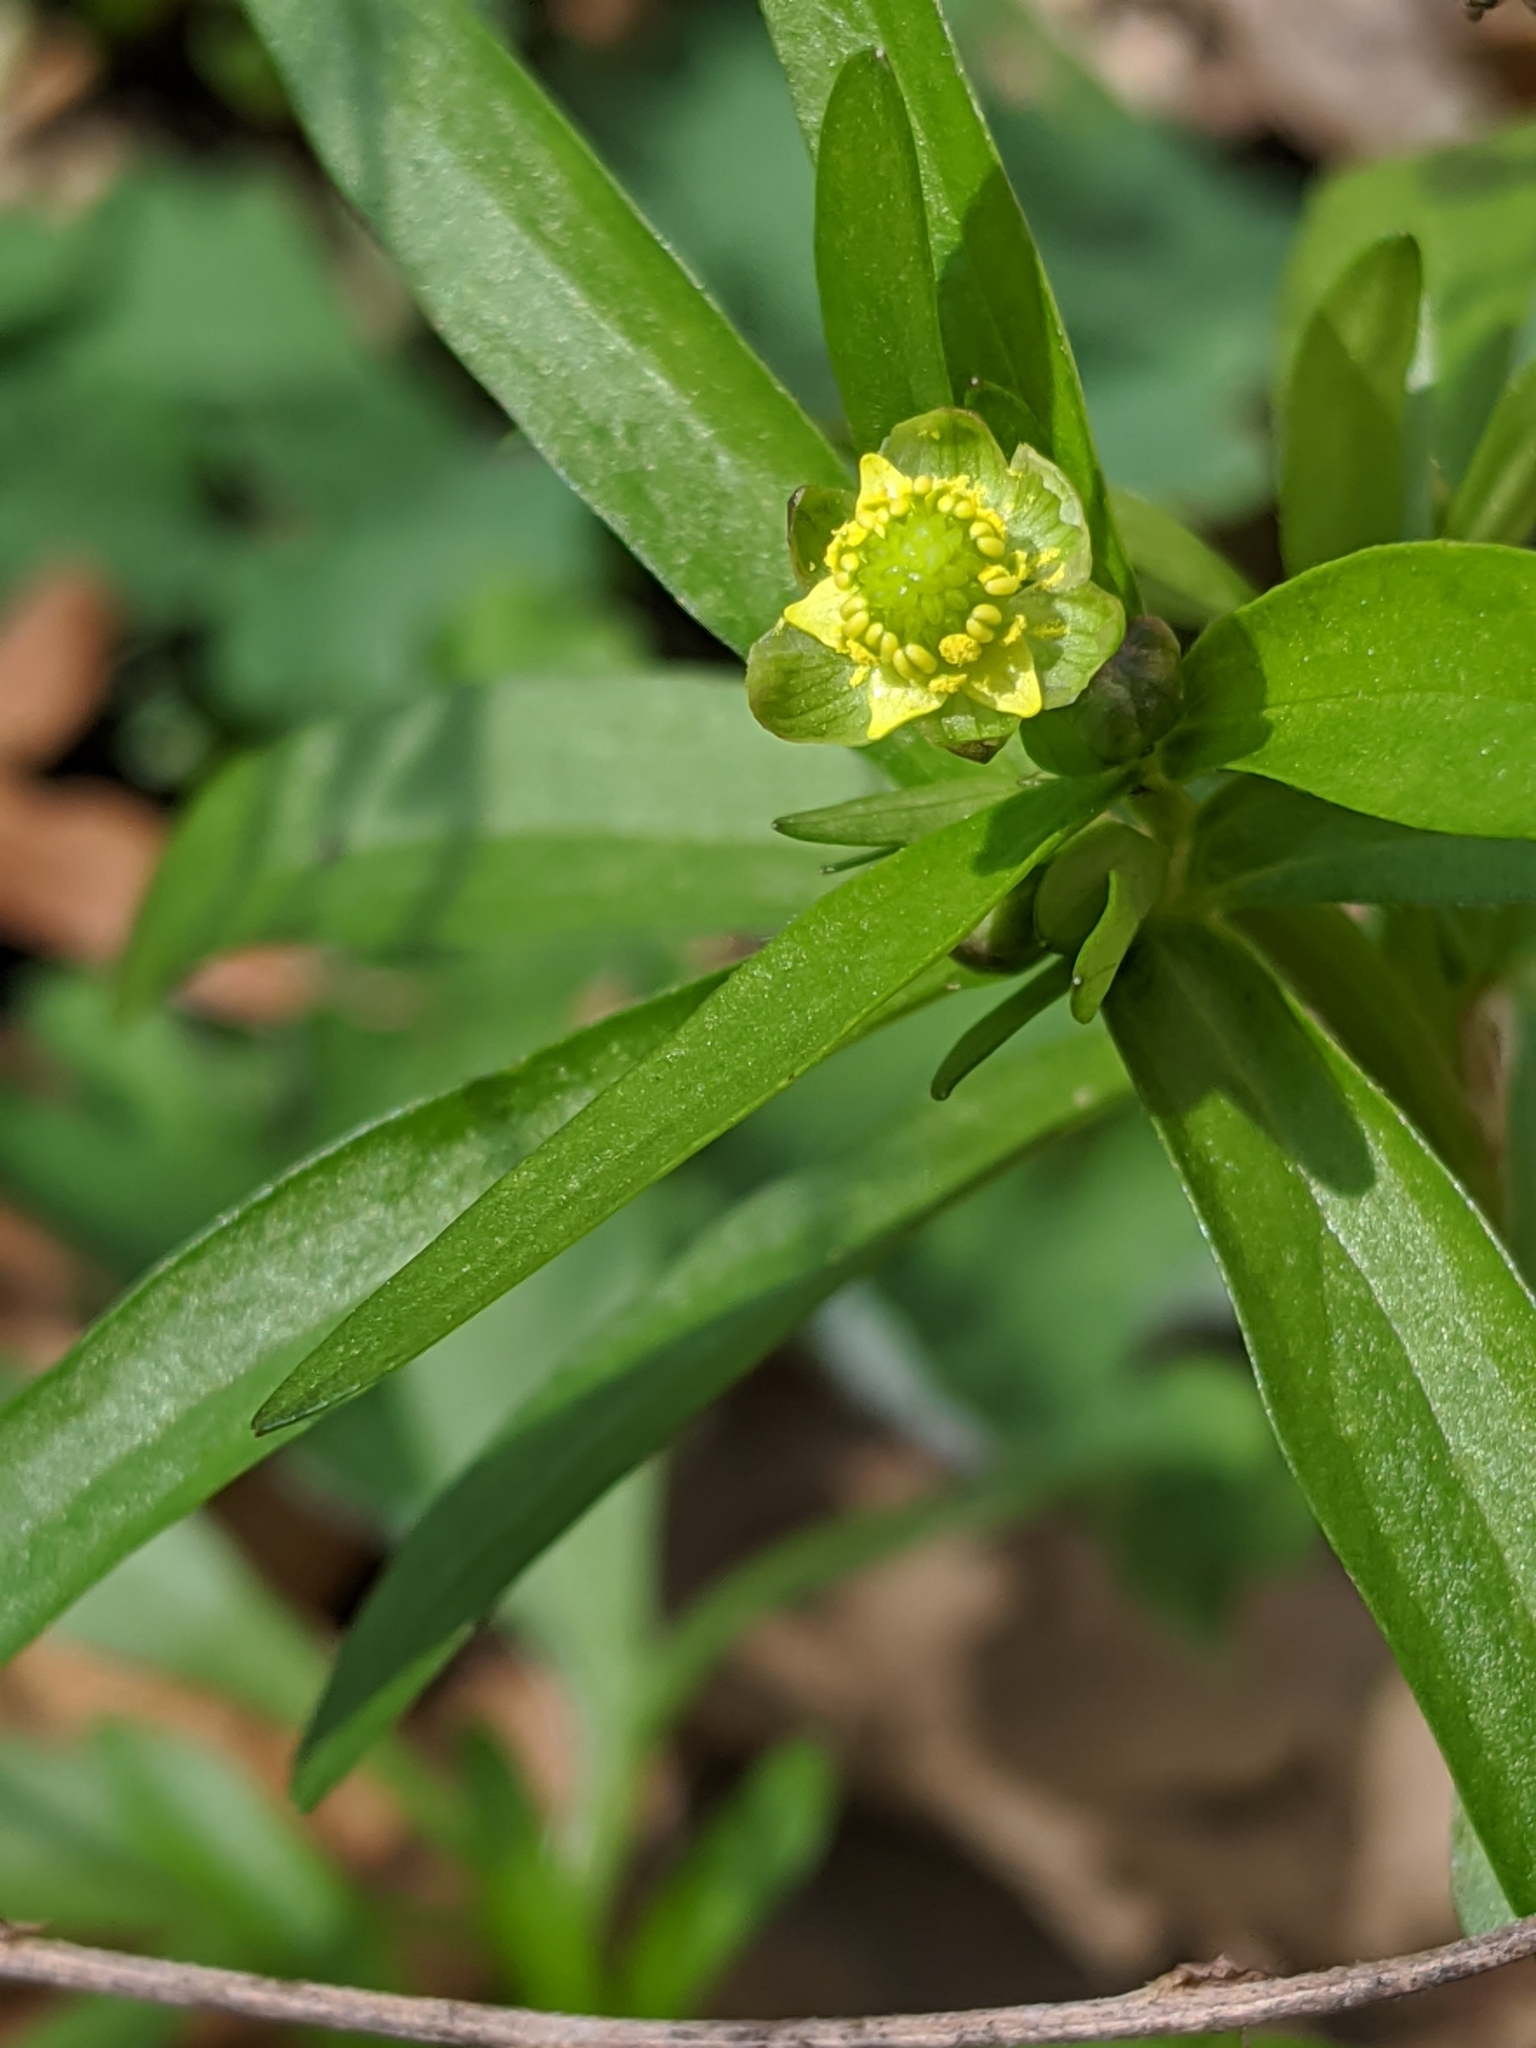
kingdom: Plantae
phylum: Tracheophyta
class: Magnoliopsida
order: Ranunculales
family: Ranunculaceae
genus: Ranunculus
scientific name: Ranunculus abortivus
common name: Early wood buttercup
